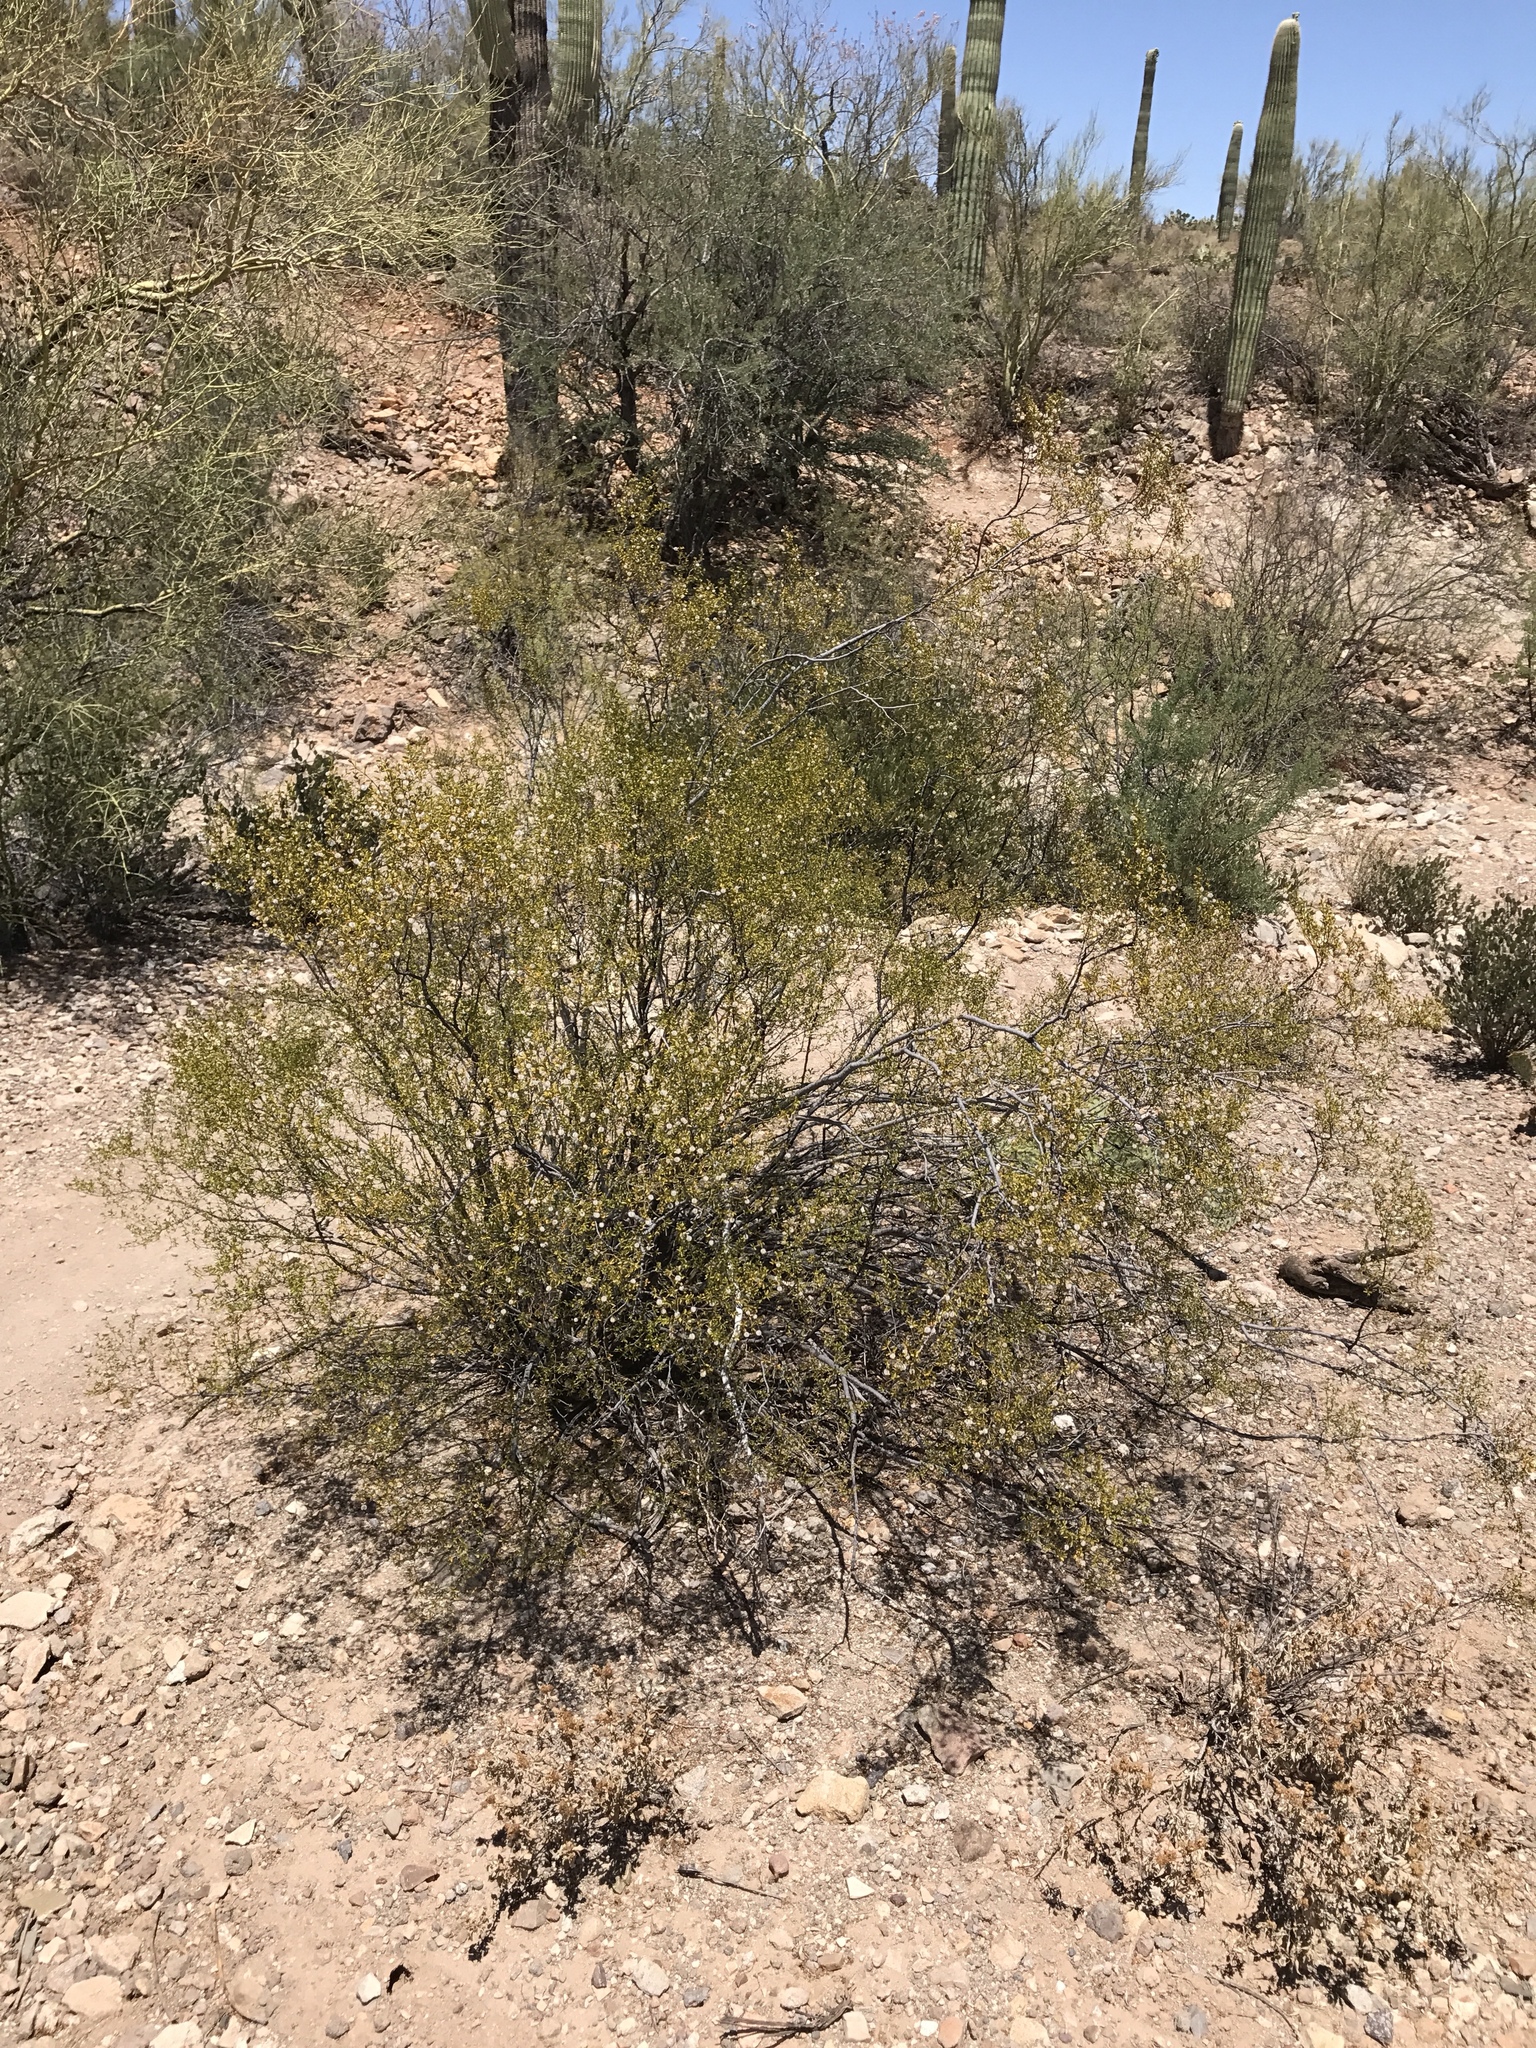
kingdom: Plantae
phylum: Tracheophyta
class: Magnoliopsida
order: Zygophyllales
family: Zygophyllaceae
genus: Larrea
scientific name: Larrea tridentata
